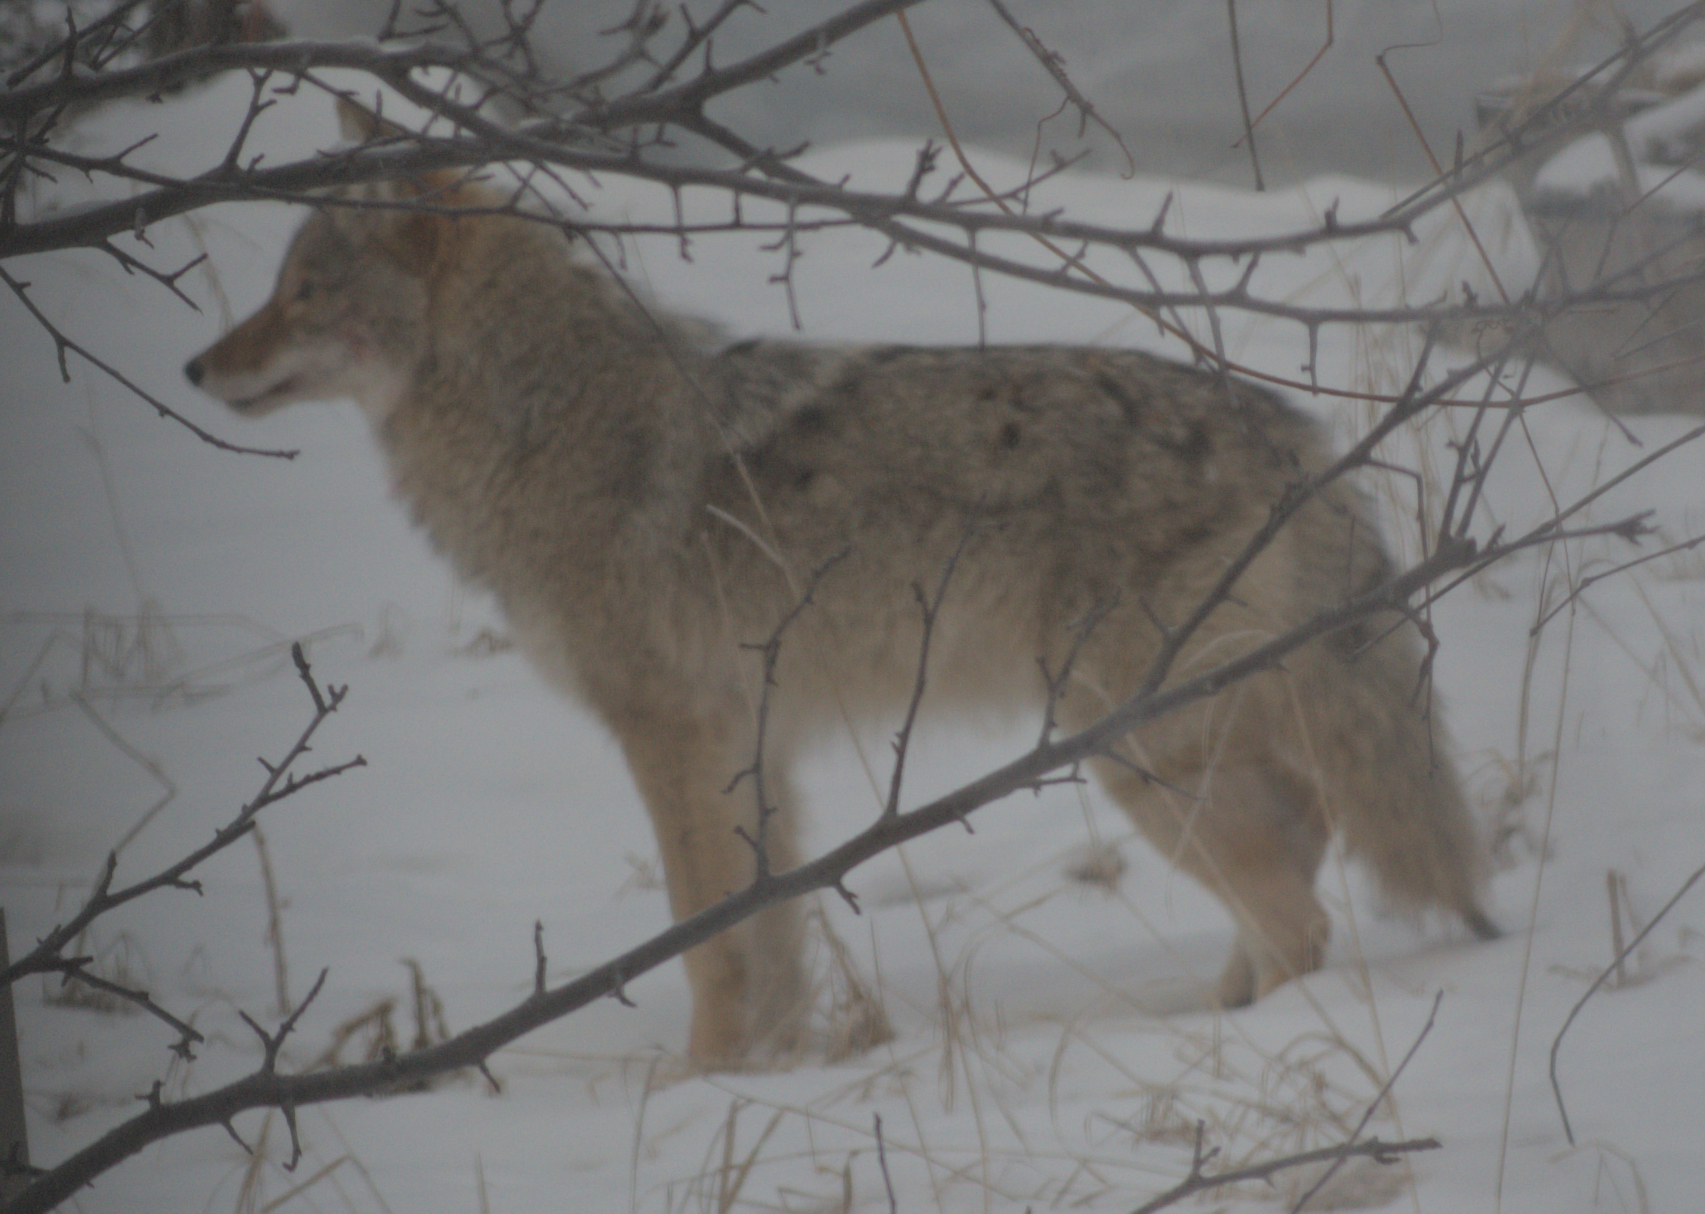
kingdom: Animalia
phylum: Chordata
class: Mammalia
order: Carnivora
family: Canidae
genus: Canis
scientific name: Canis latrans
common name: Coyote
